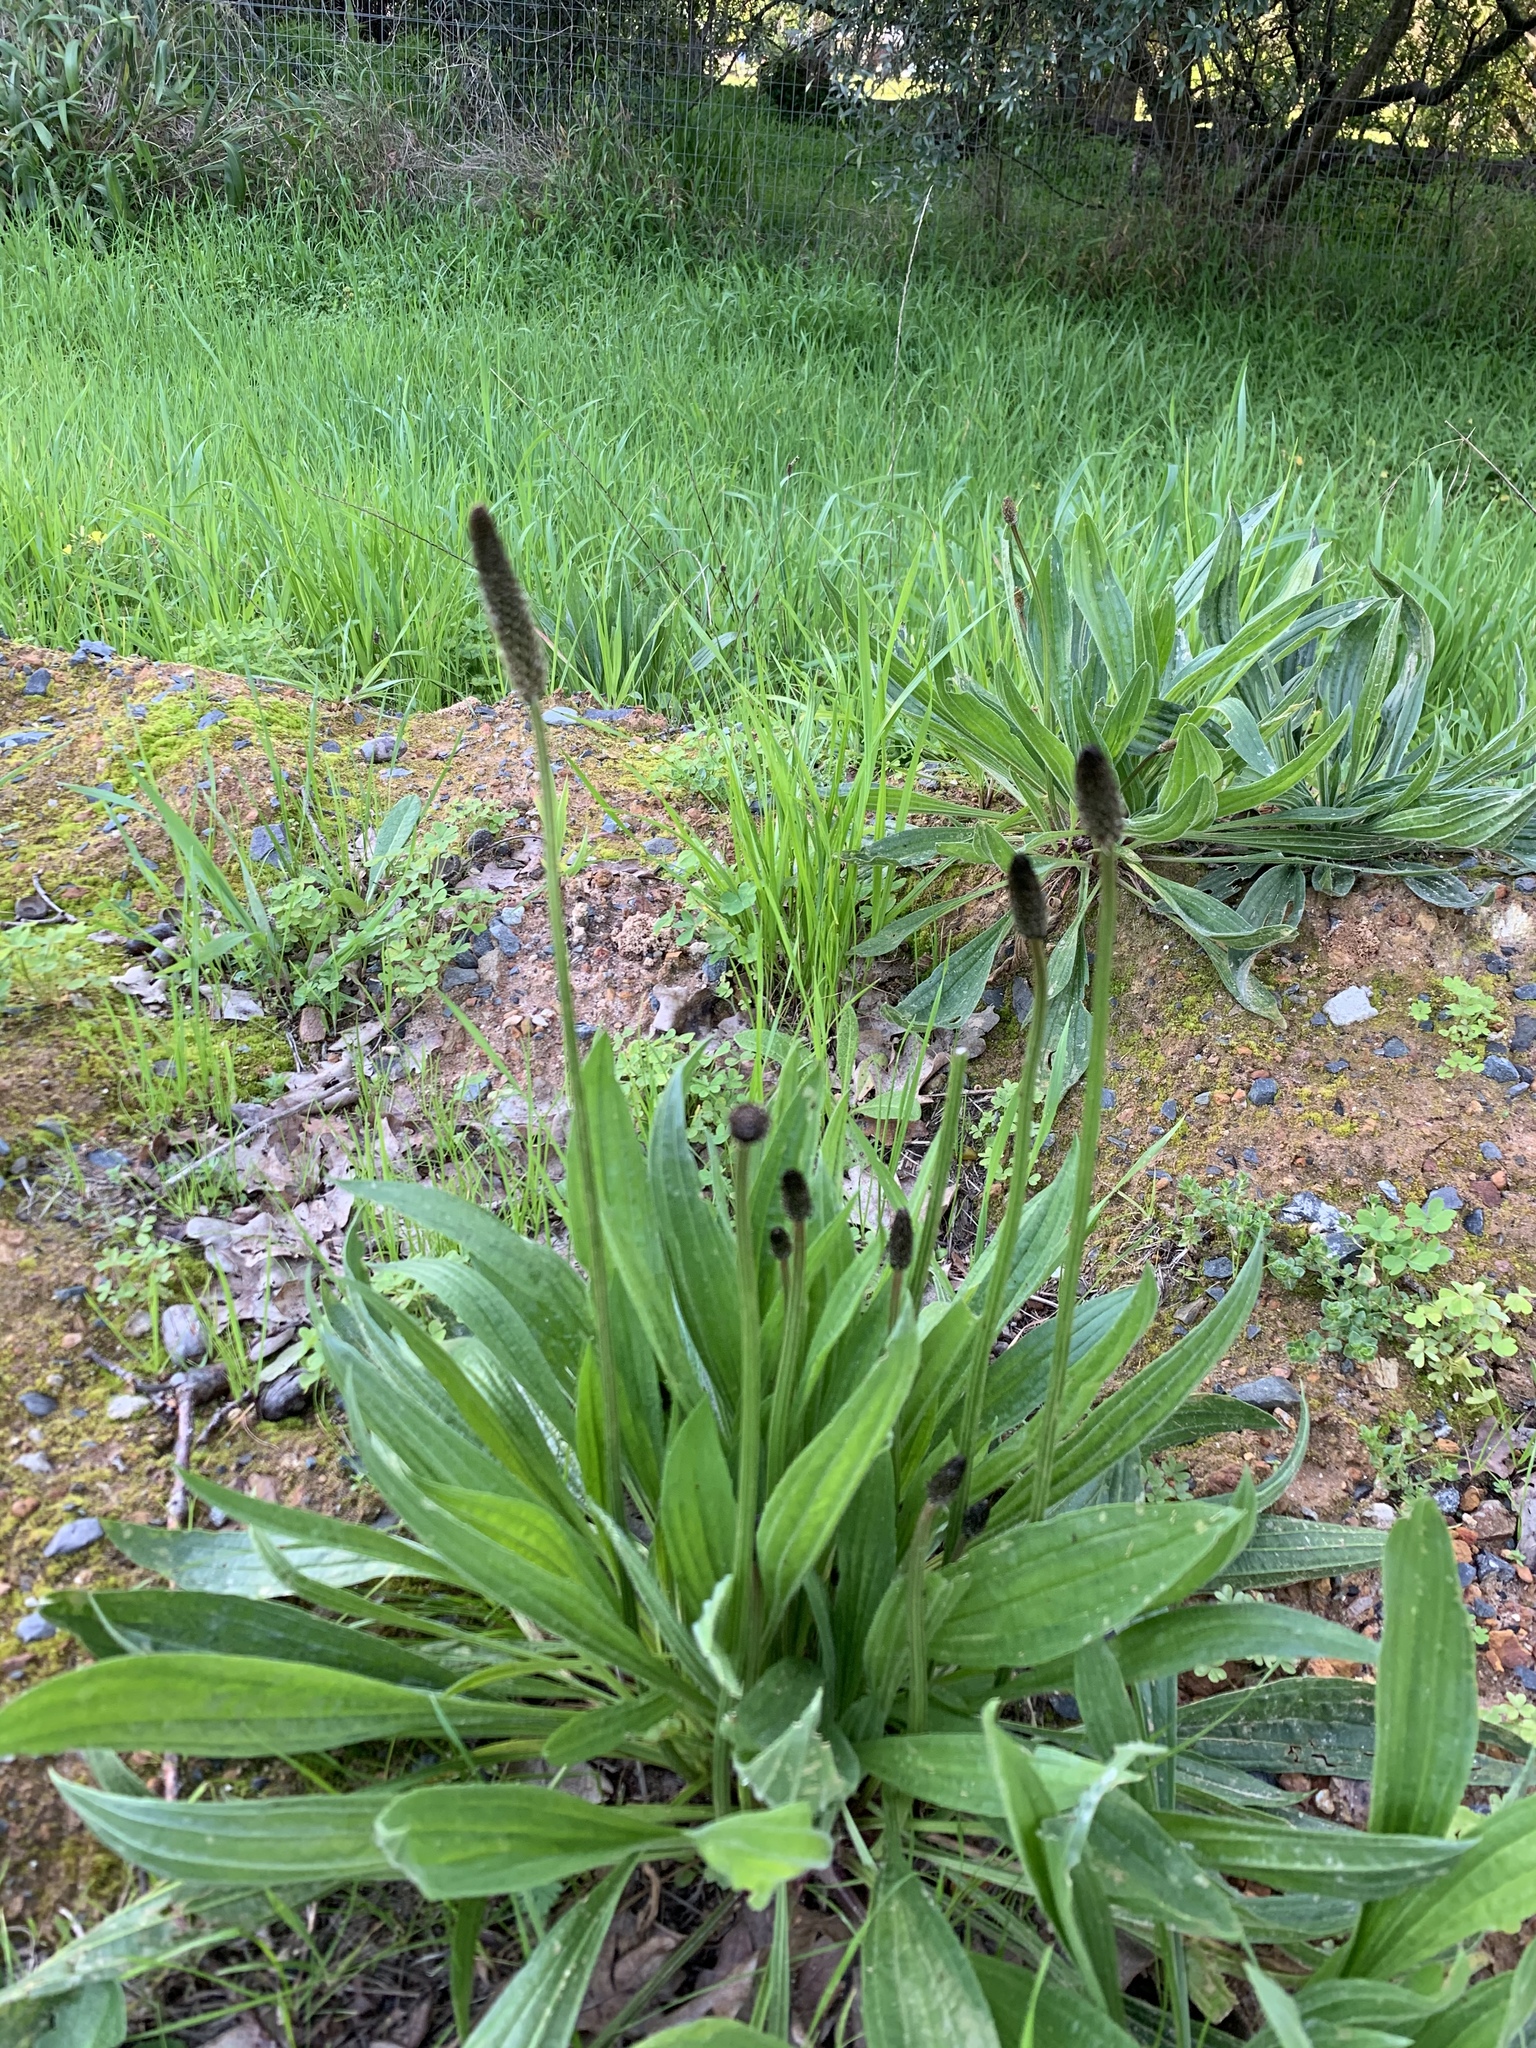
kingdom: Plantae
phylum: Tracheophyta
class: Magnoliopsida
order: Lamiales
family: Plantaginaceae
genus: Plantago
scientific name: Plantago lanceolata
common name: Ribwort plantain
